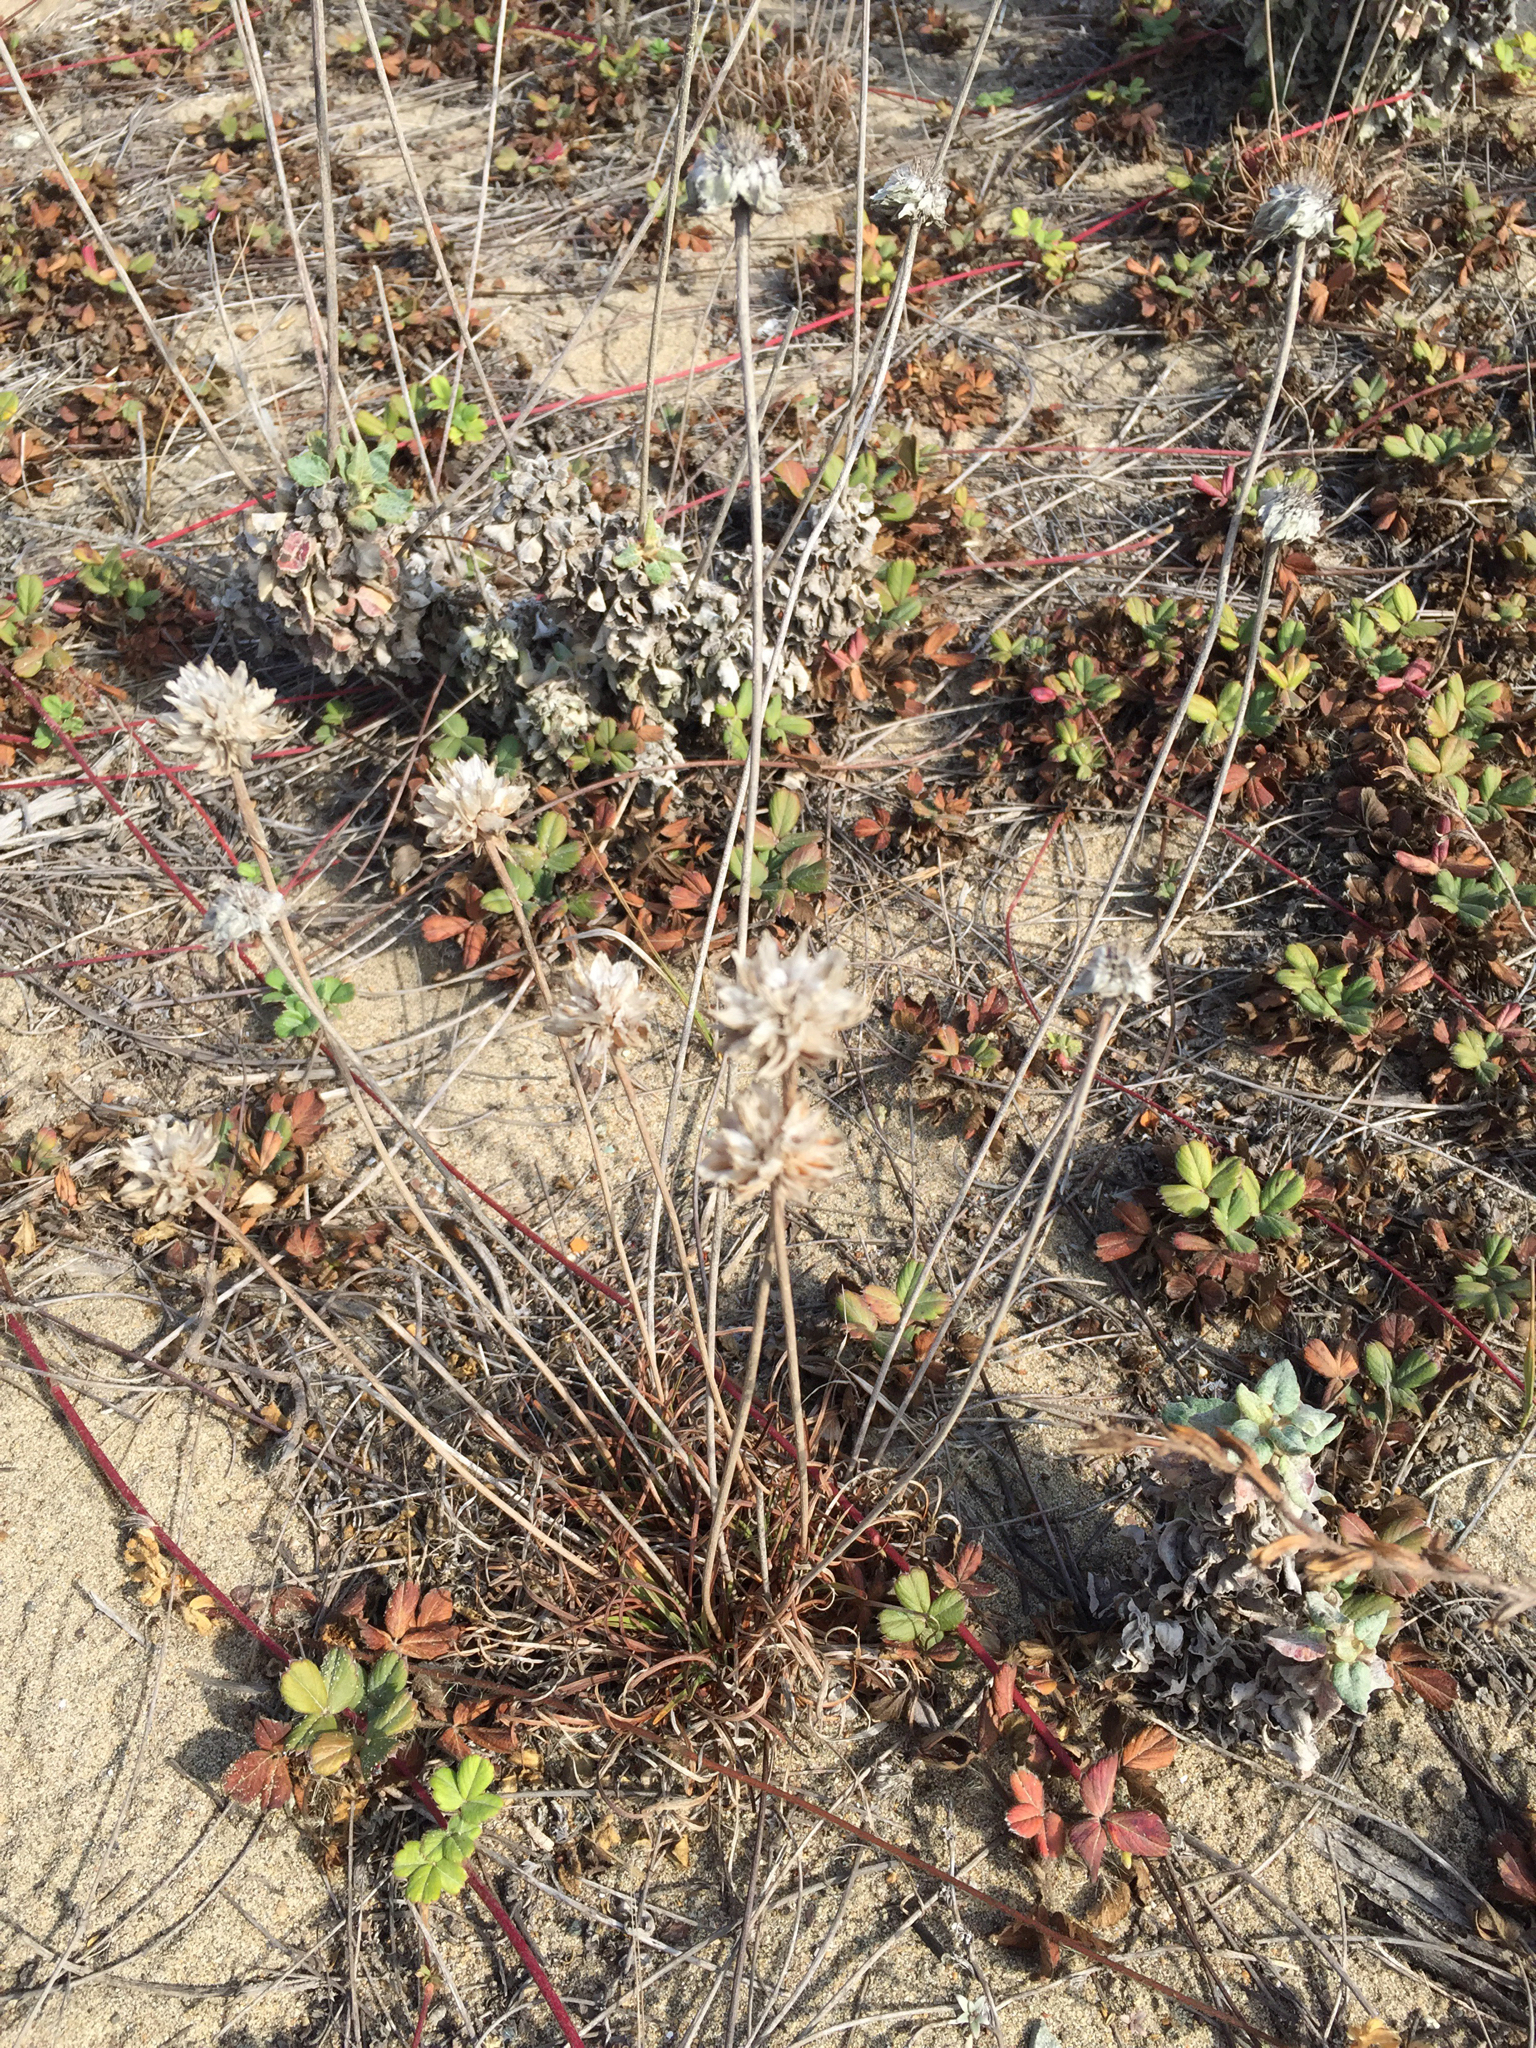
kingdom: Plantae
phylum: Tracheophyta
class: Magnoliopsida
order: Caryophyllales
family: Plumbaginaceae
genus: Armeria
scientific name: Armeria maritima
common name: Thrift
